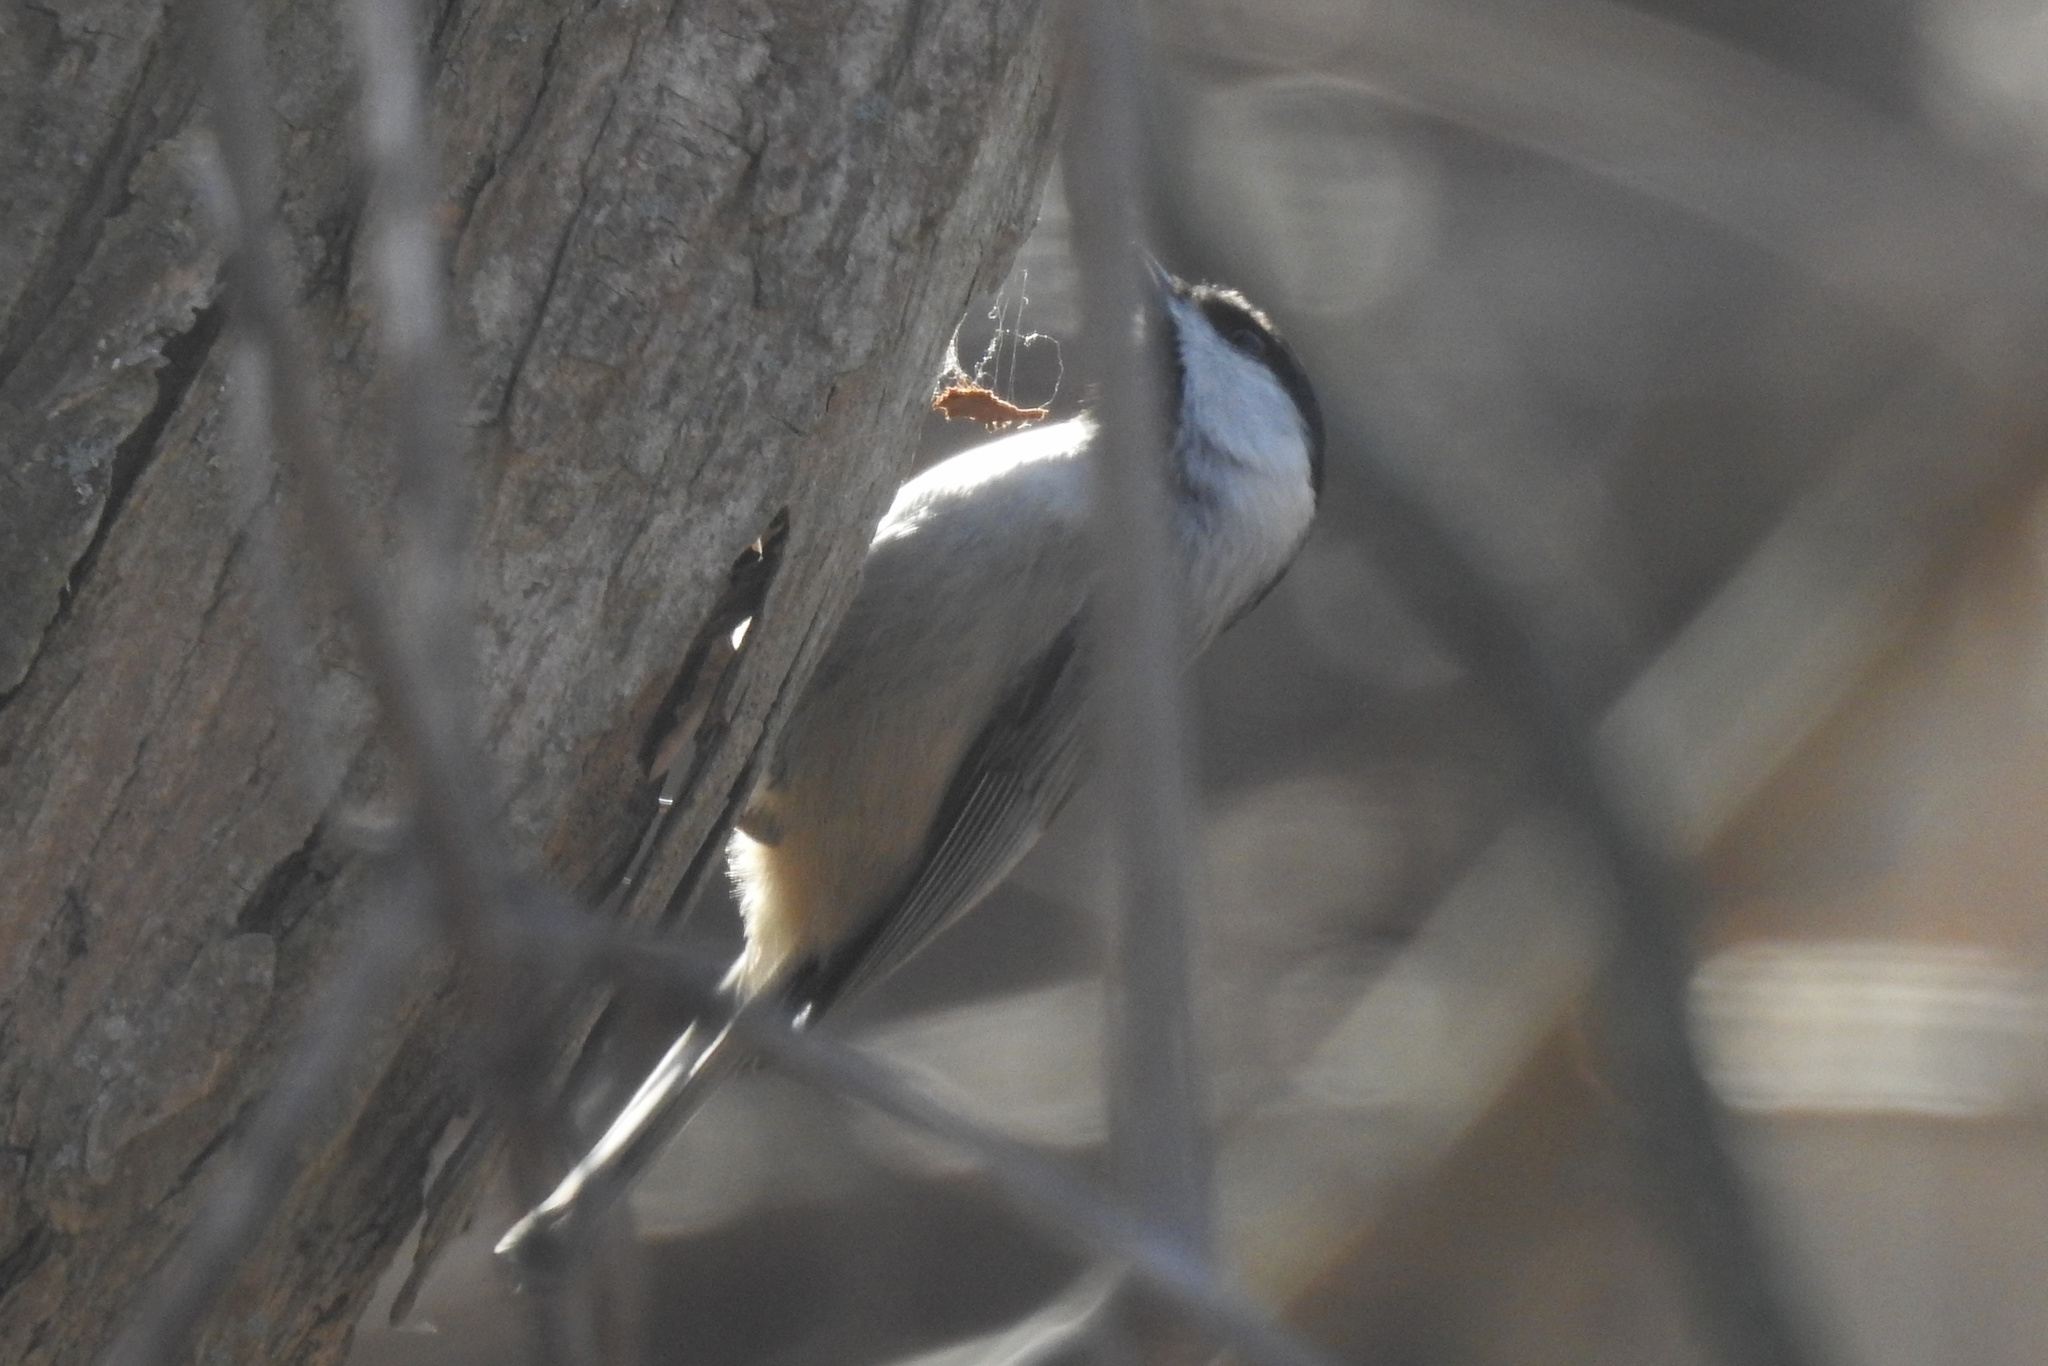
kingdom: Animalia
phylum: Chordata
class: Aves
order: Passeriformes
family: Paridae
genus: Poecile
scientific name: Poecile carolinensis
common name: Carolina chickadee
